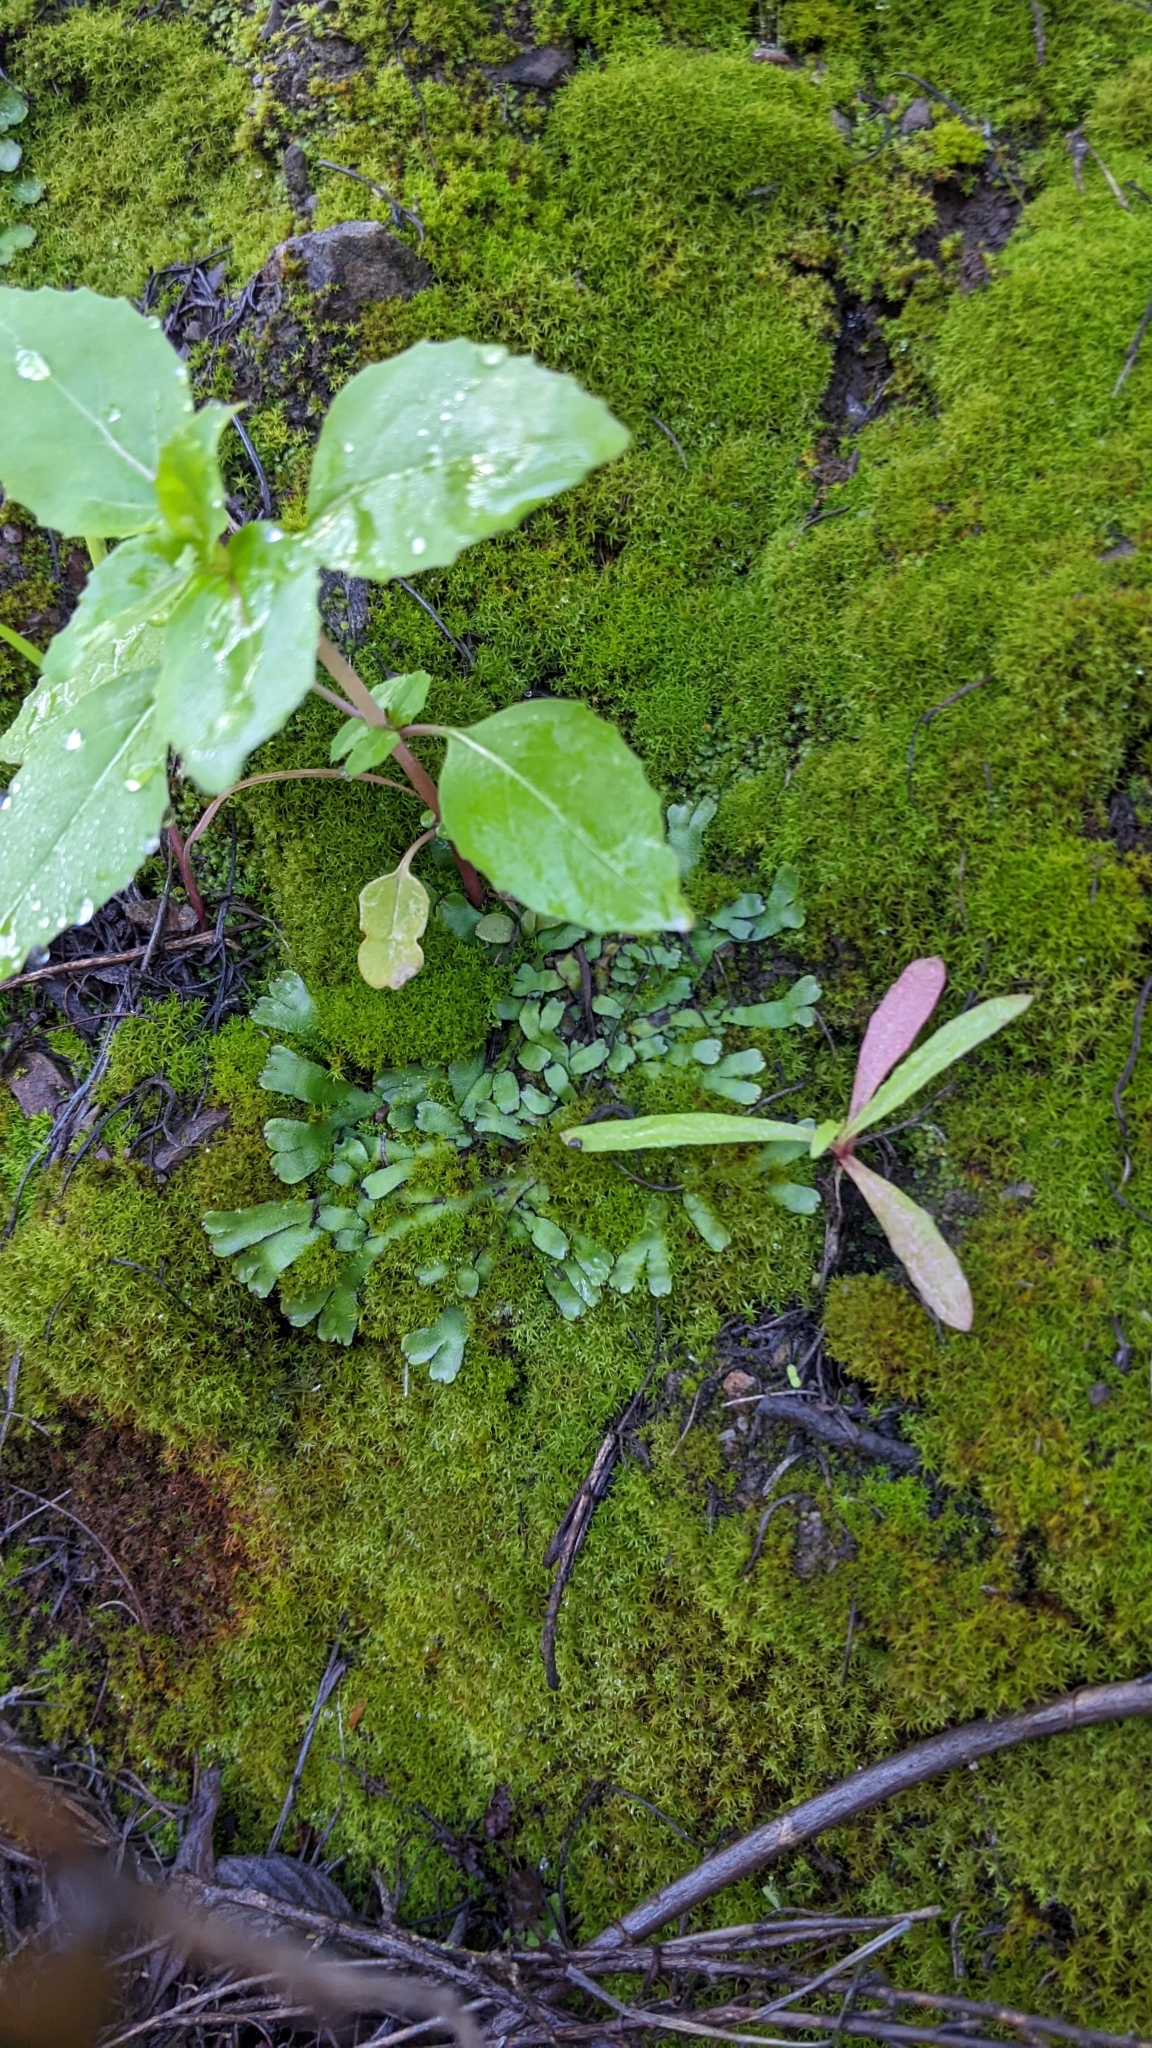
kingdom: Plantae
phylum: Marchantiophyta
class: Marchantiopsida
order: Marchantiales
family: Targioniaceae
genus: Targionia
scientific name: Targionia hypophylla
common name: Orobus-seed liverwort
